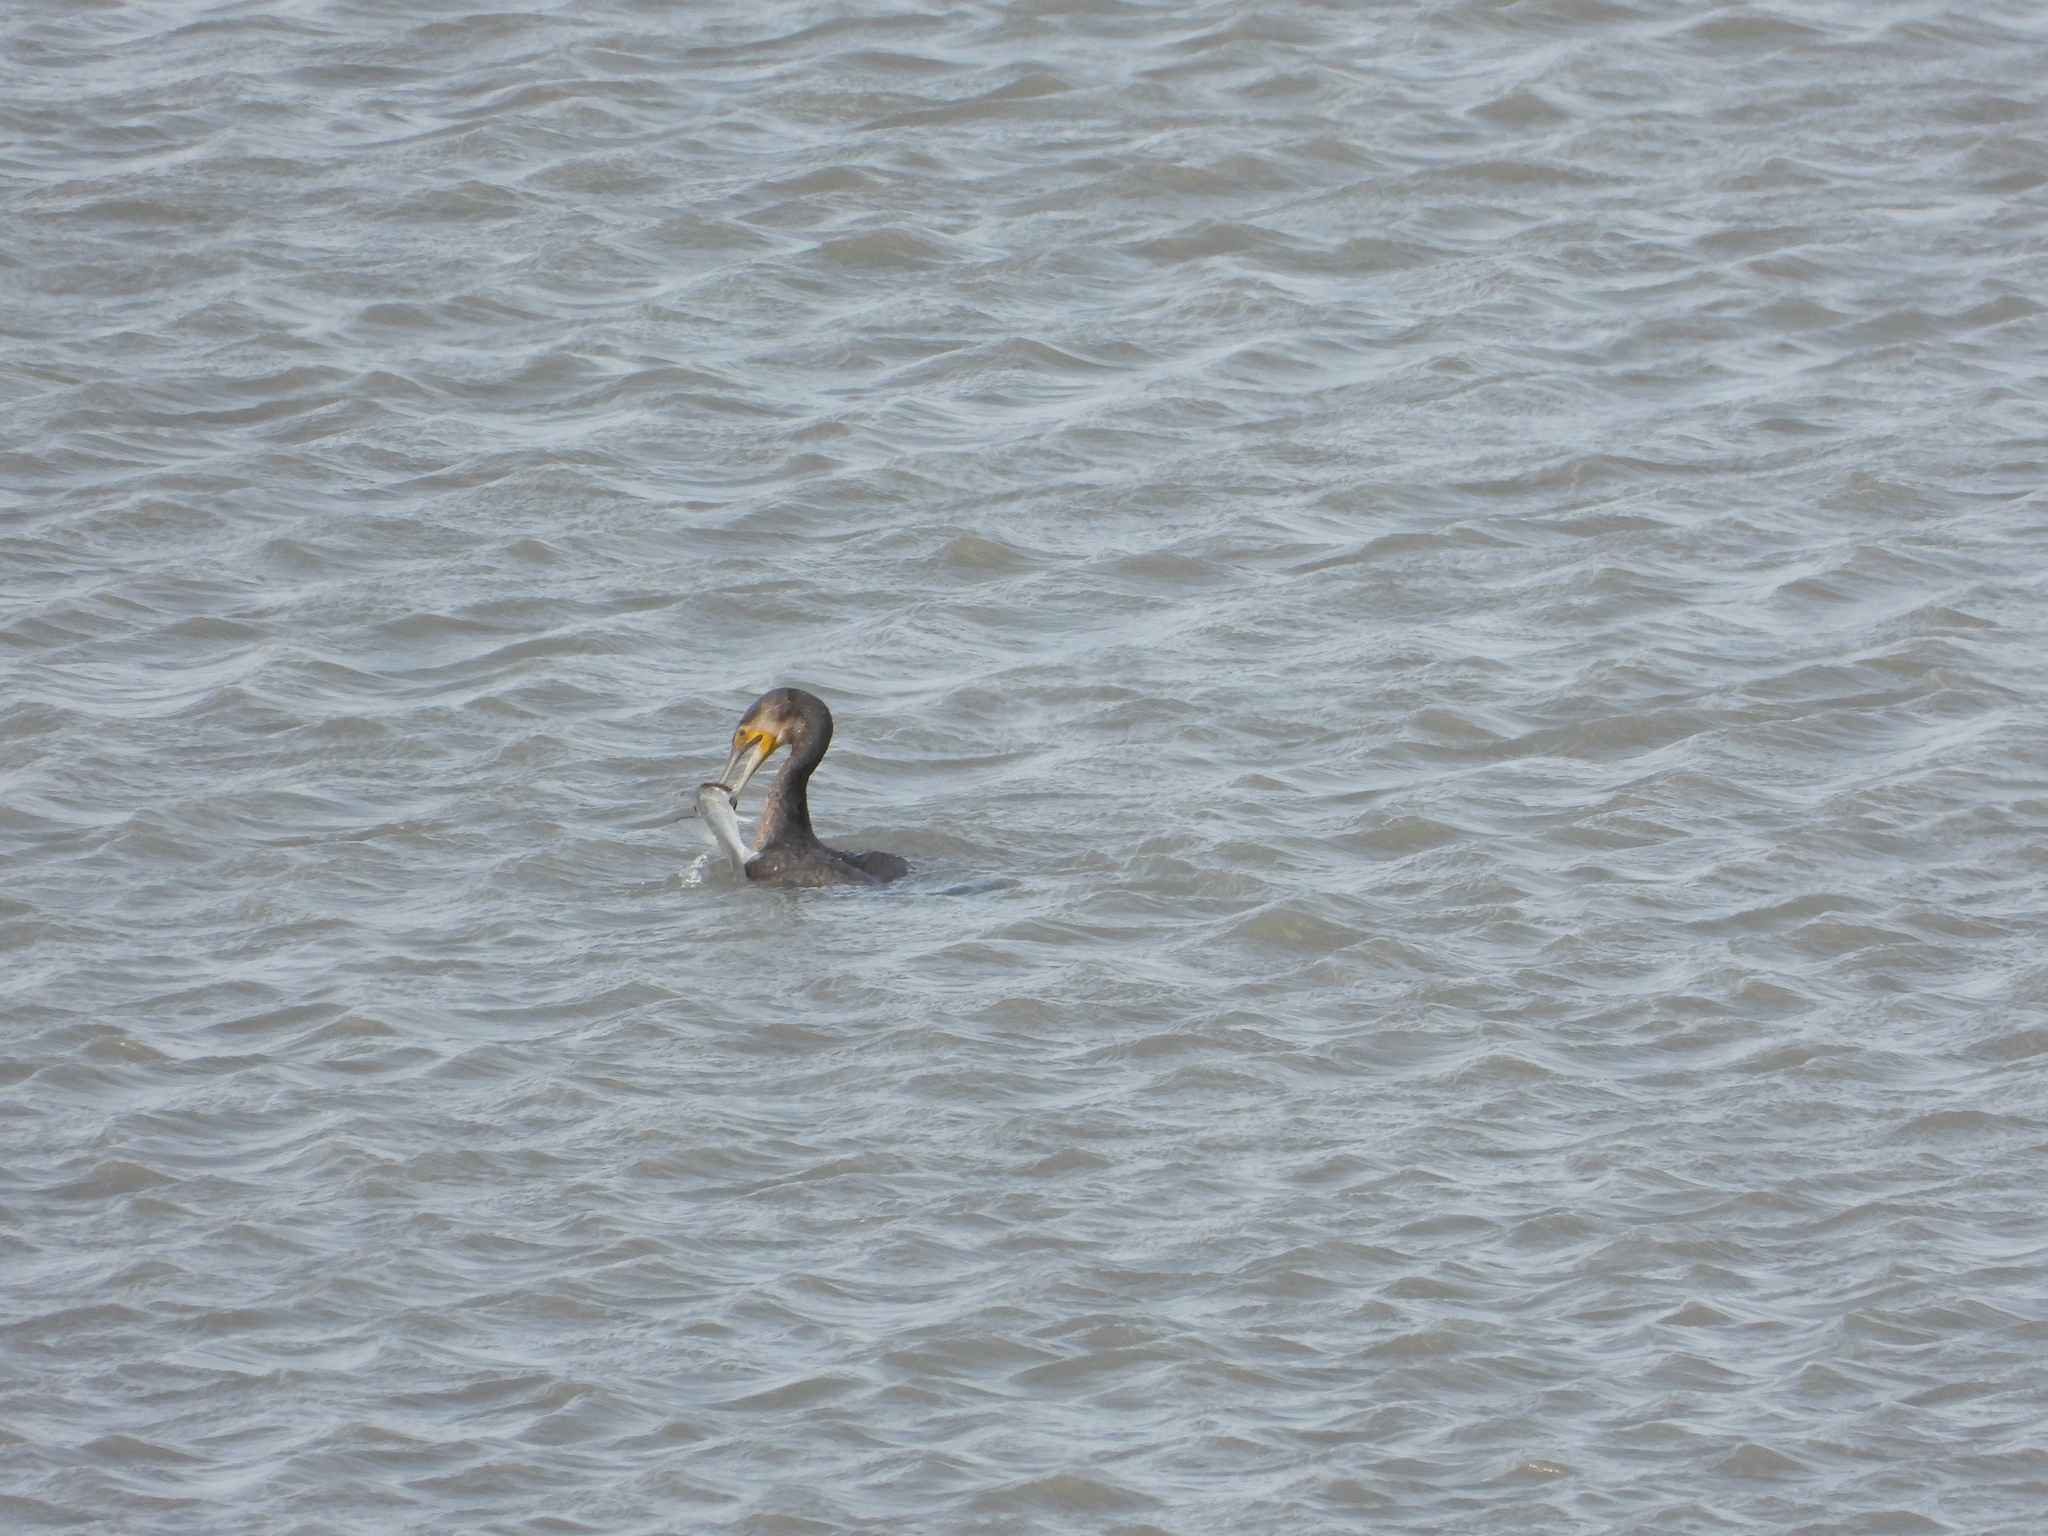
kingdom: Animalia
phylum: Chordata
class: Aves
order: Suliformes
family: Phalacrocoracidae
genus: Phalacrocorax
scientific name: Phalacrocorax carbo
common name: Great cormorant
